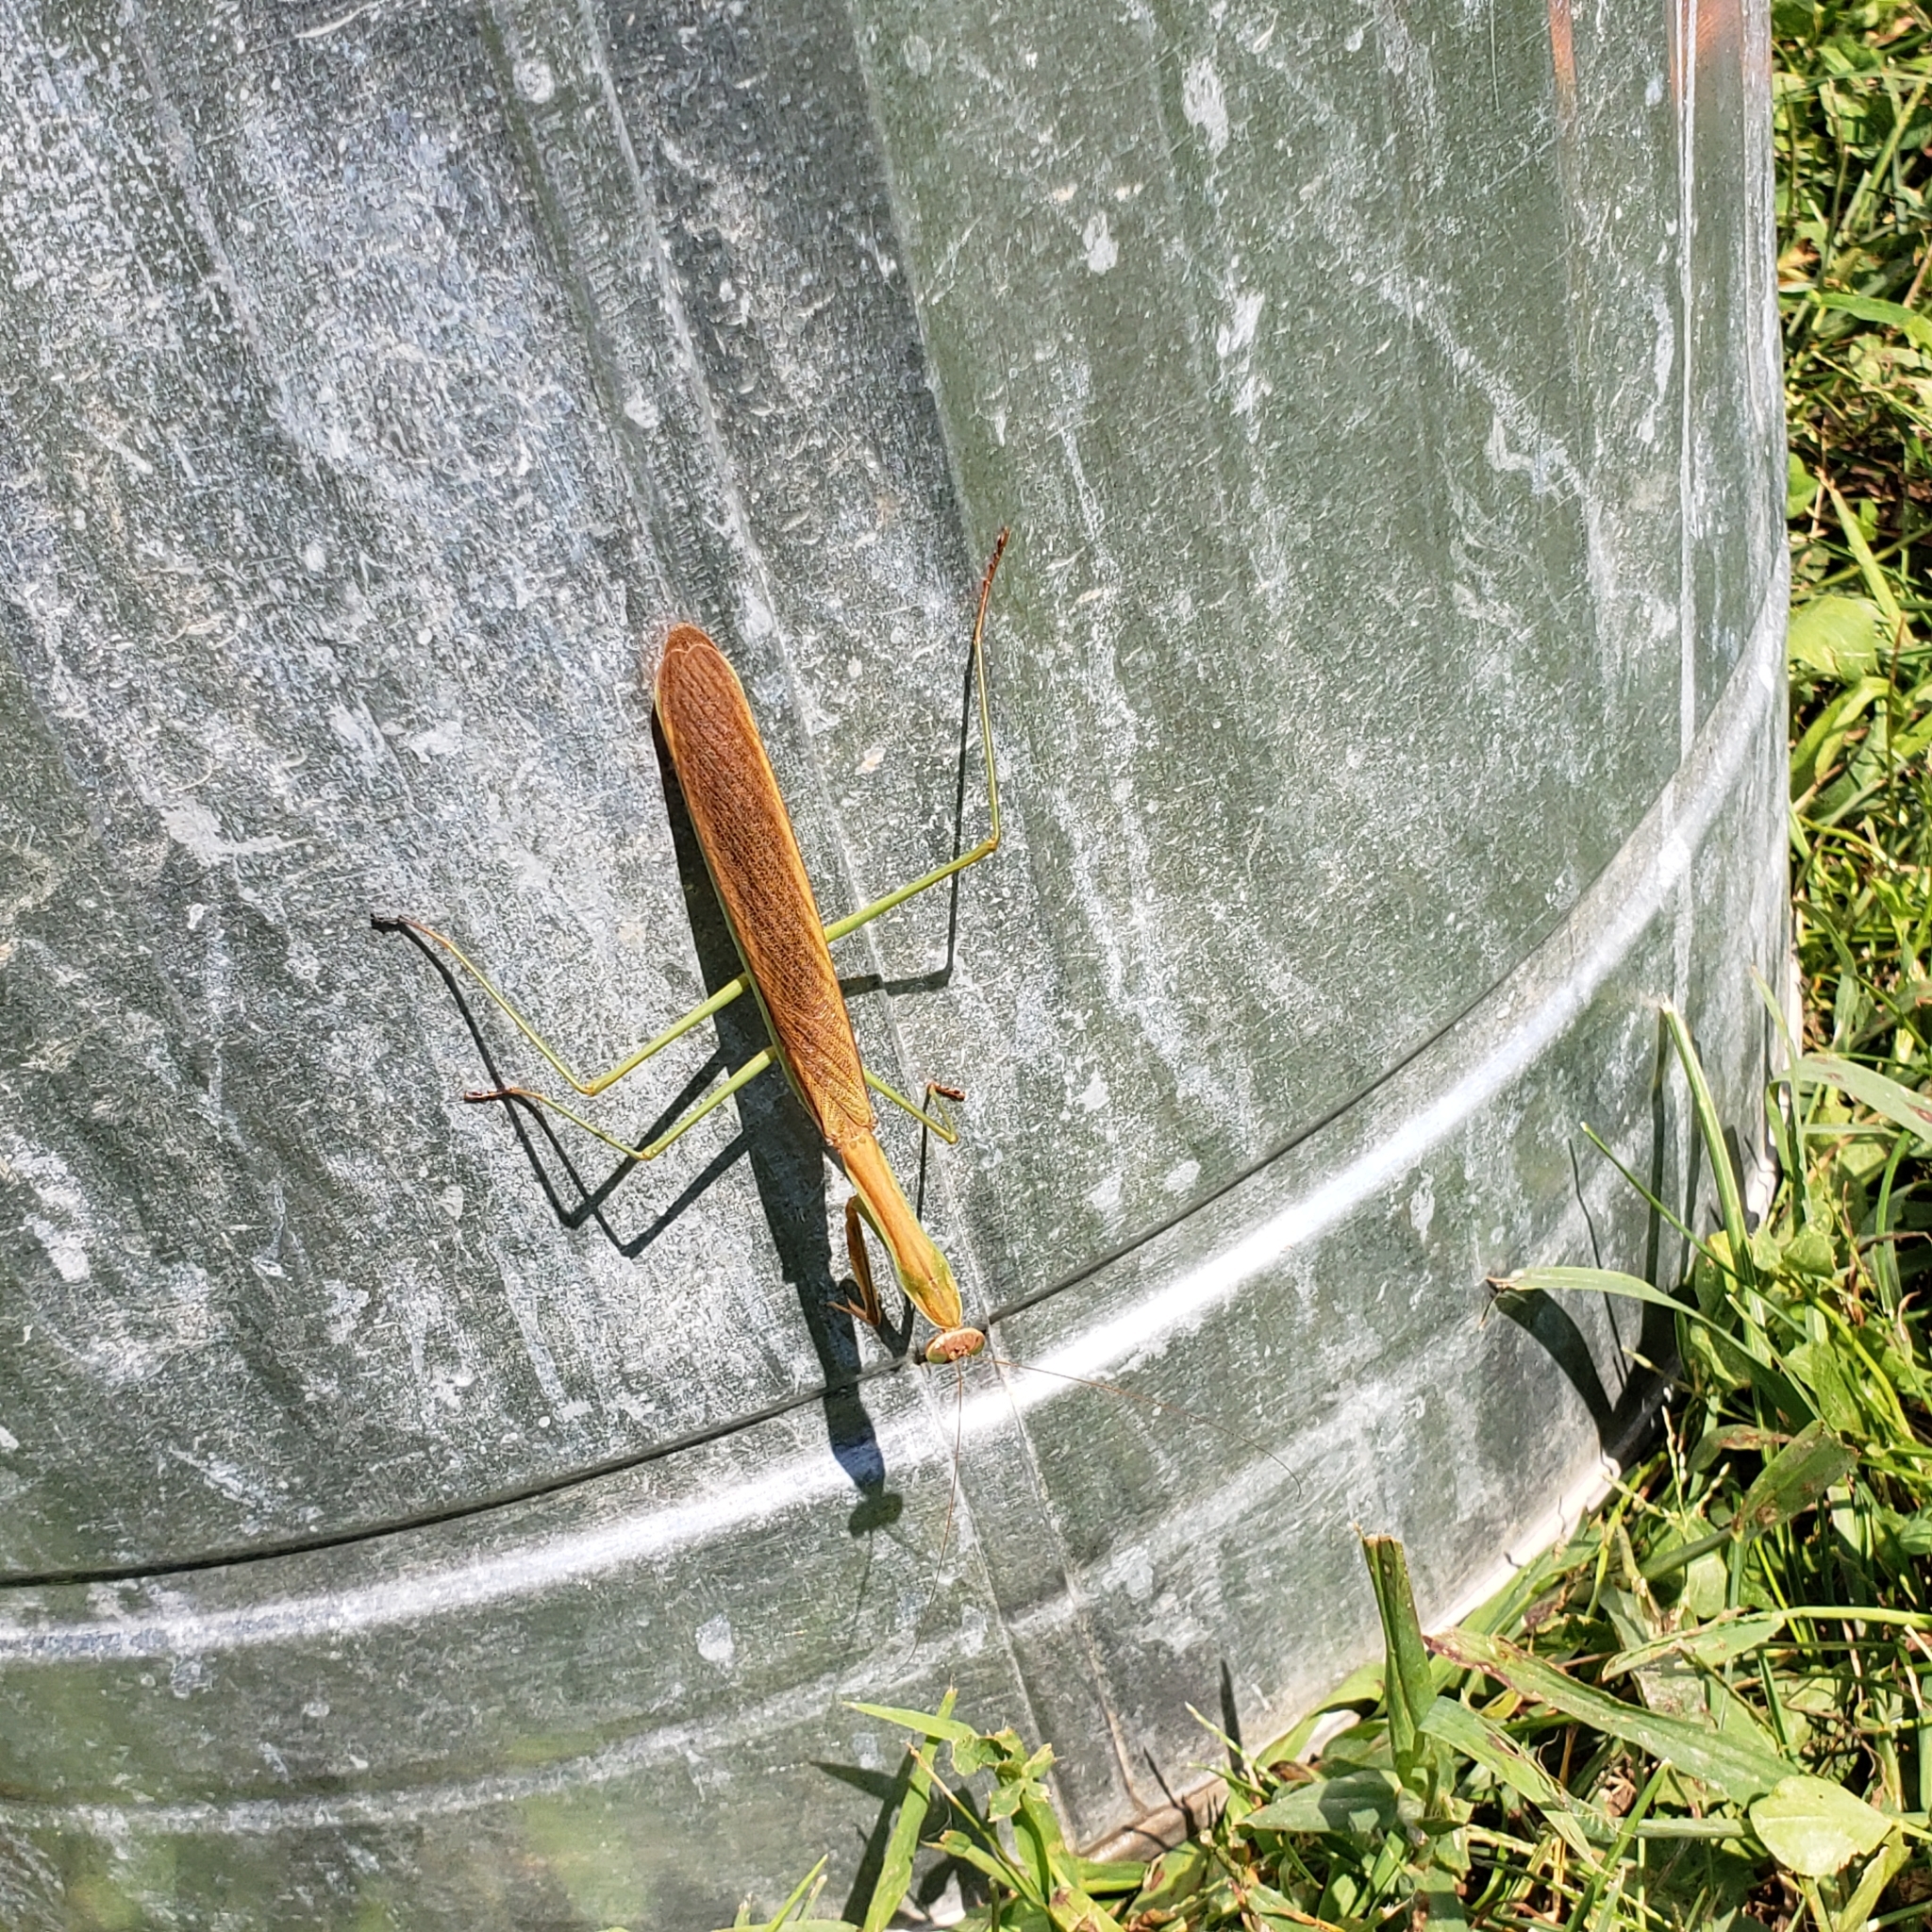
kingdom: Animalia
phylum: Arthropoda
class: Insecta
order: Mantodea
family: Mantidae
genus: Tenodera
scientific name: Tenodera sinensis
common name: Chinese mantis
